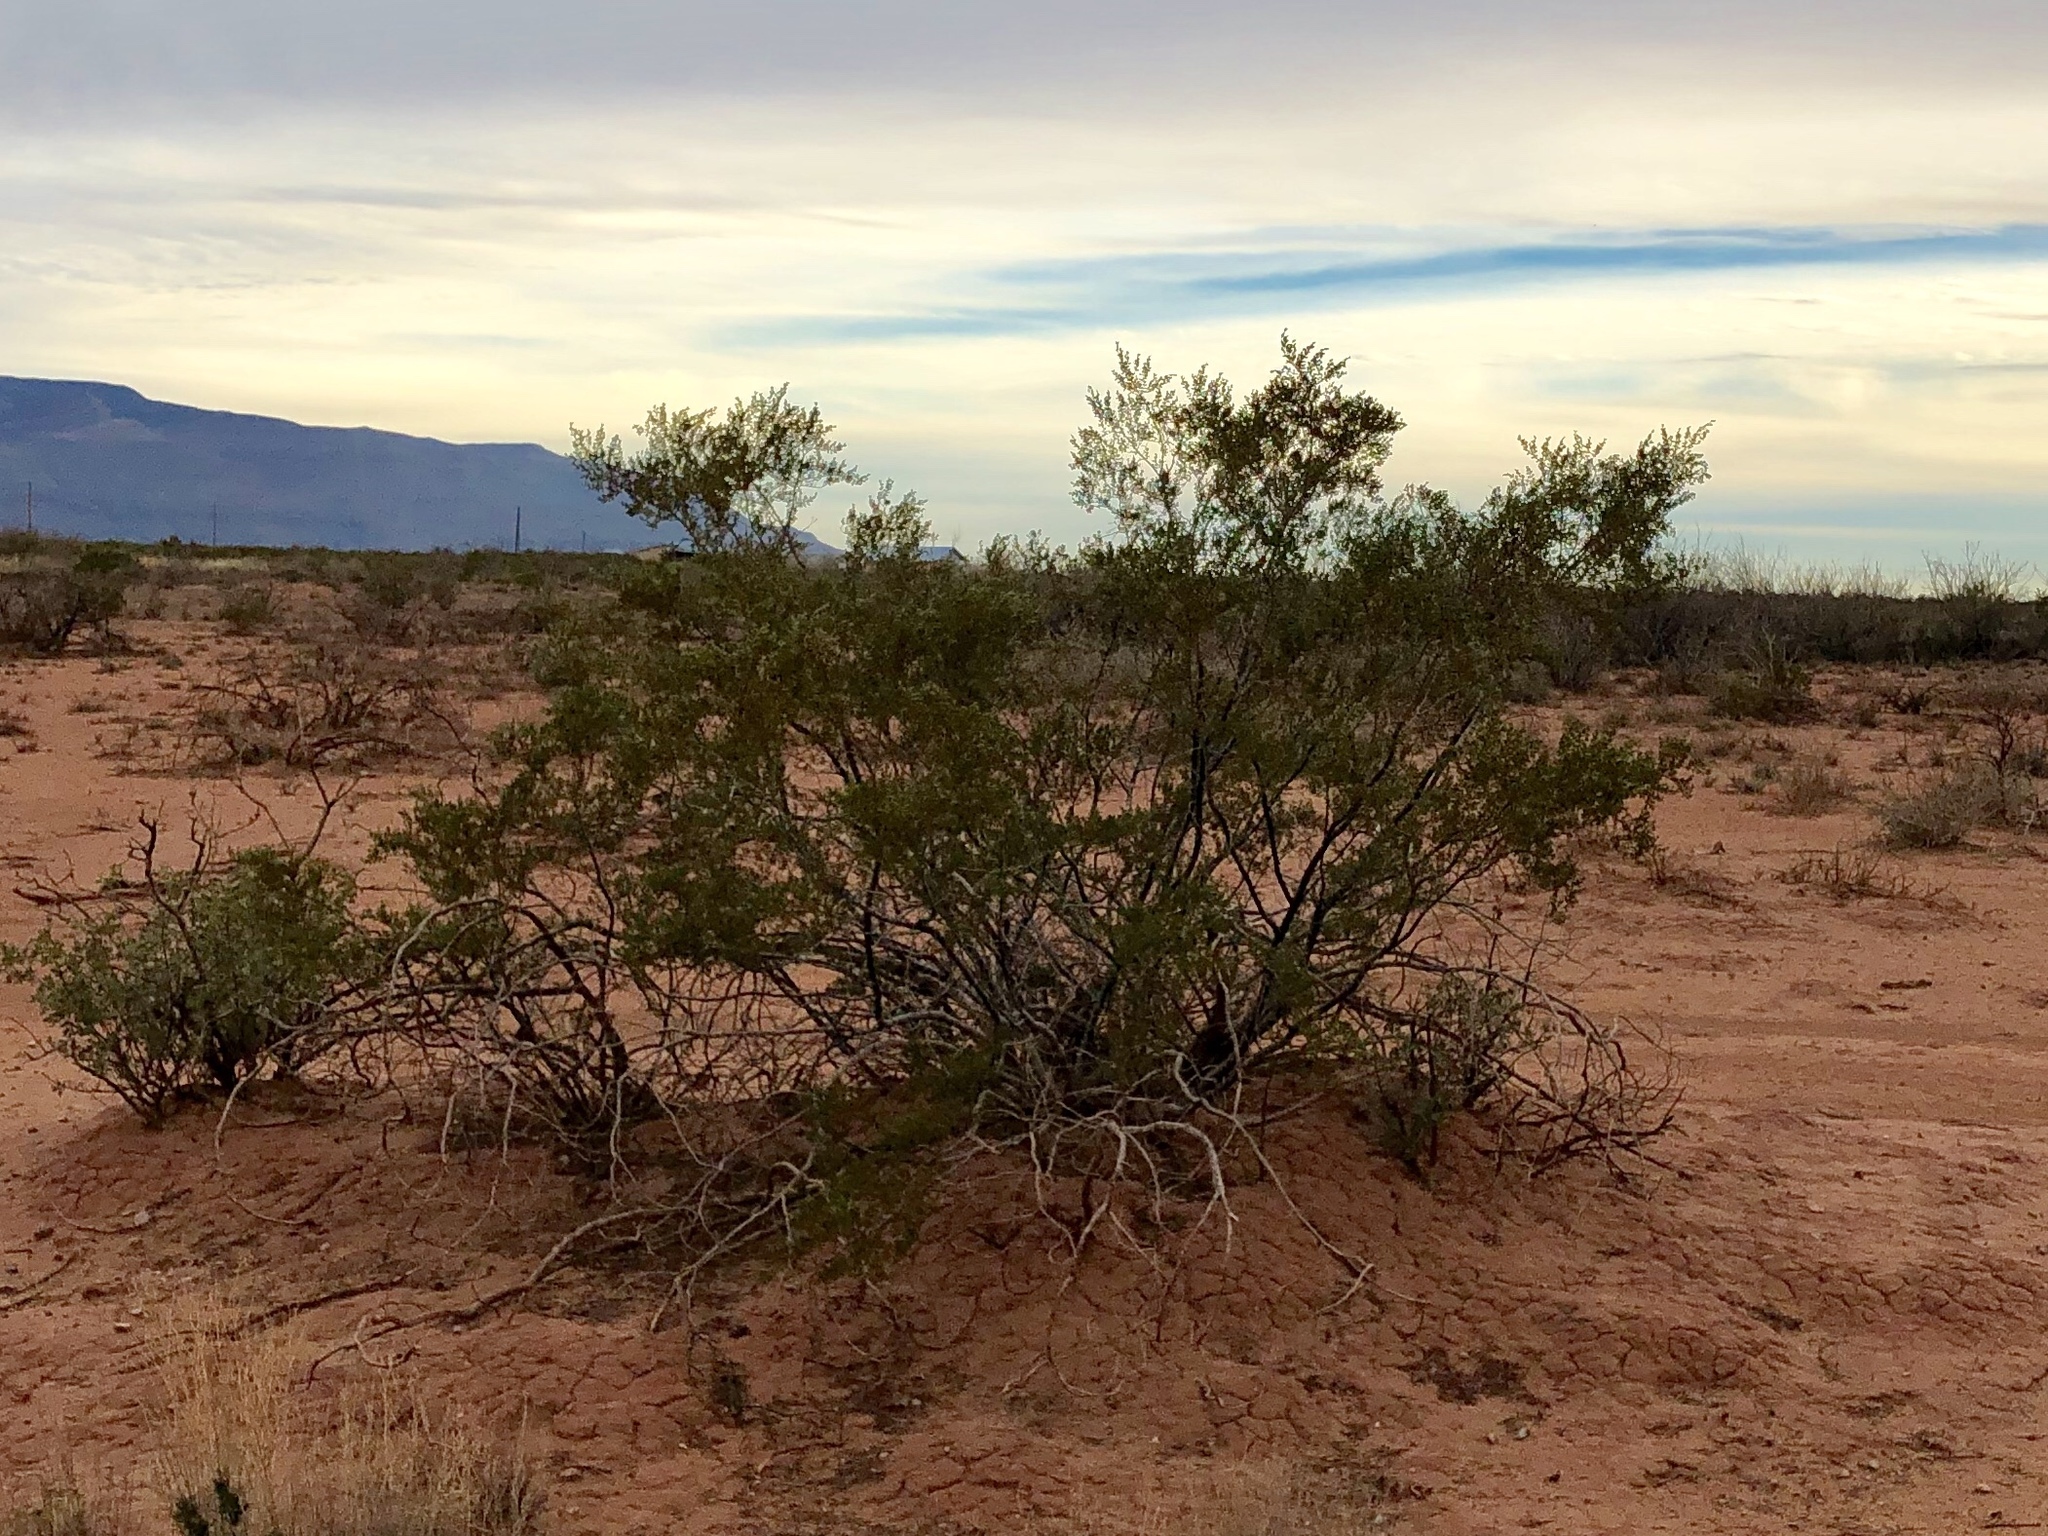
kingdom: Plantae
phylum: Tracheophyta
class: Magnoliopsida
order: Zygophyllales
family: Zygophyllaceae
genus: Larrea
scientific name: Larrea tridentata
